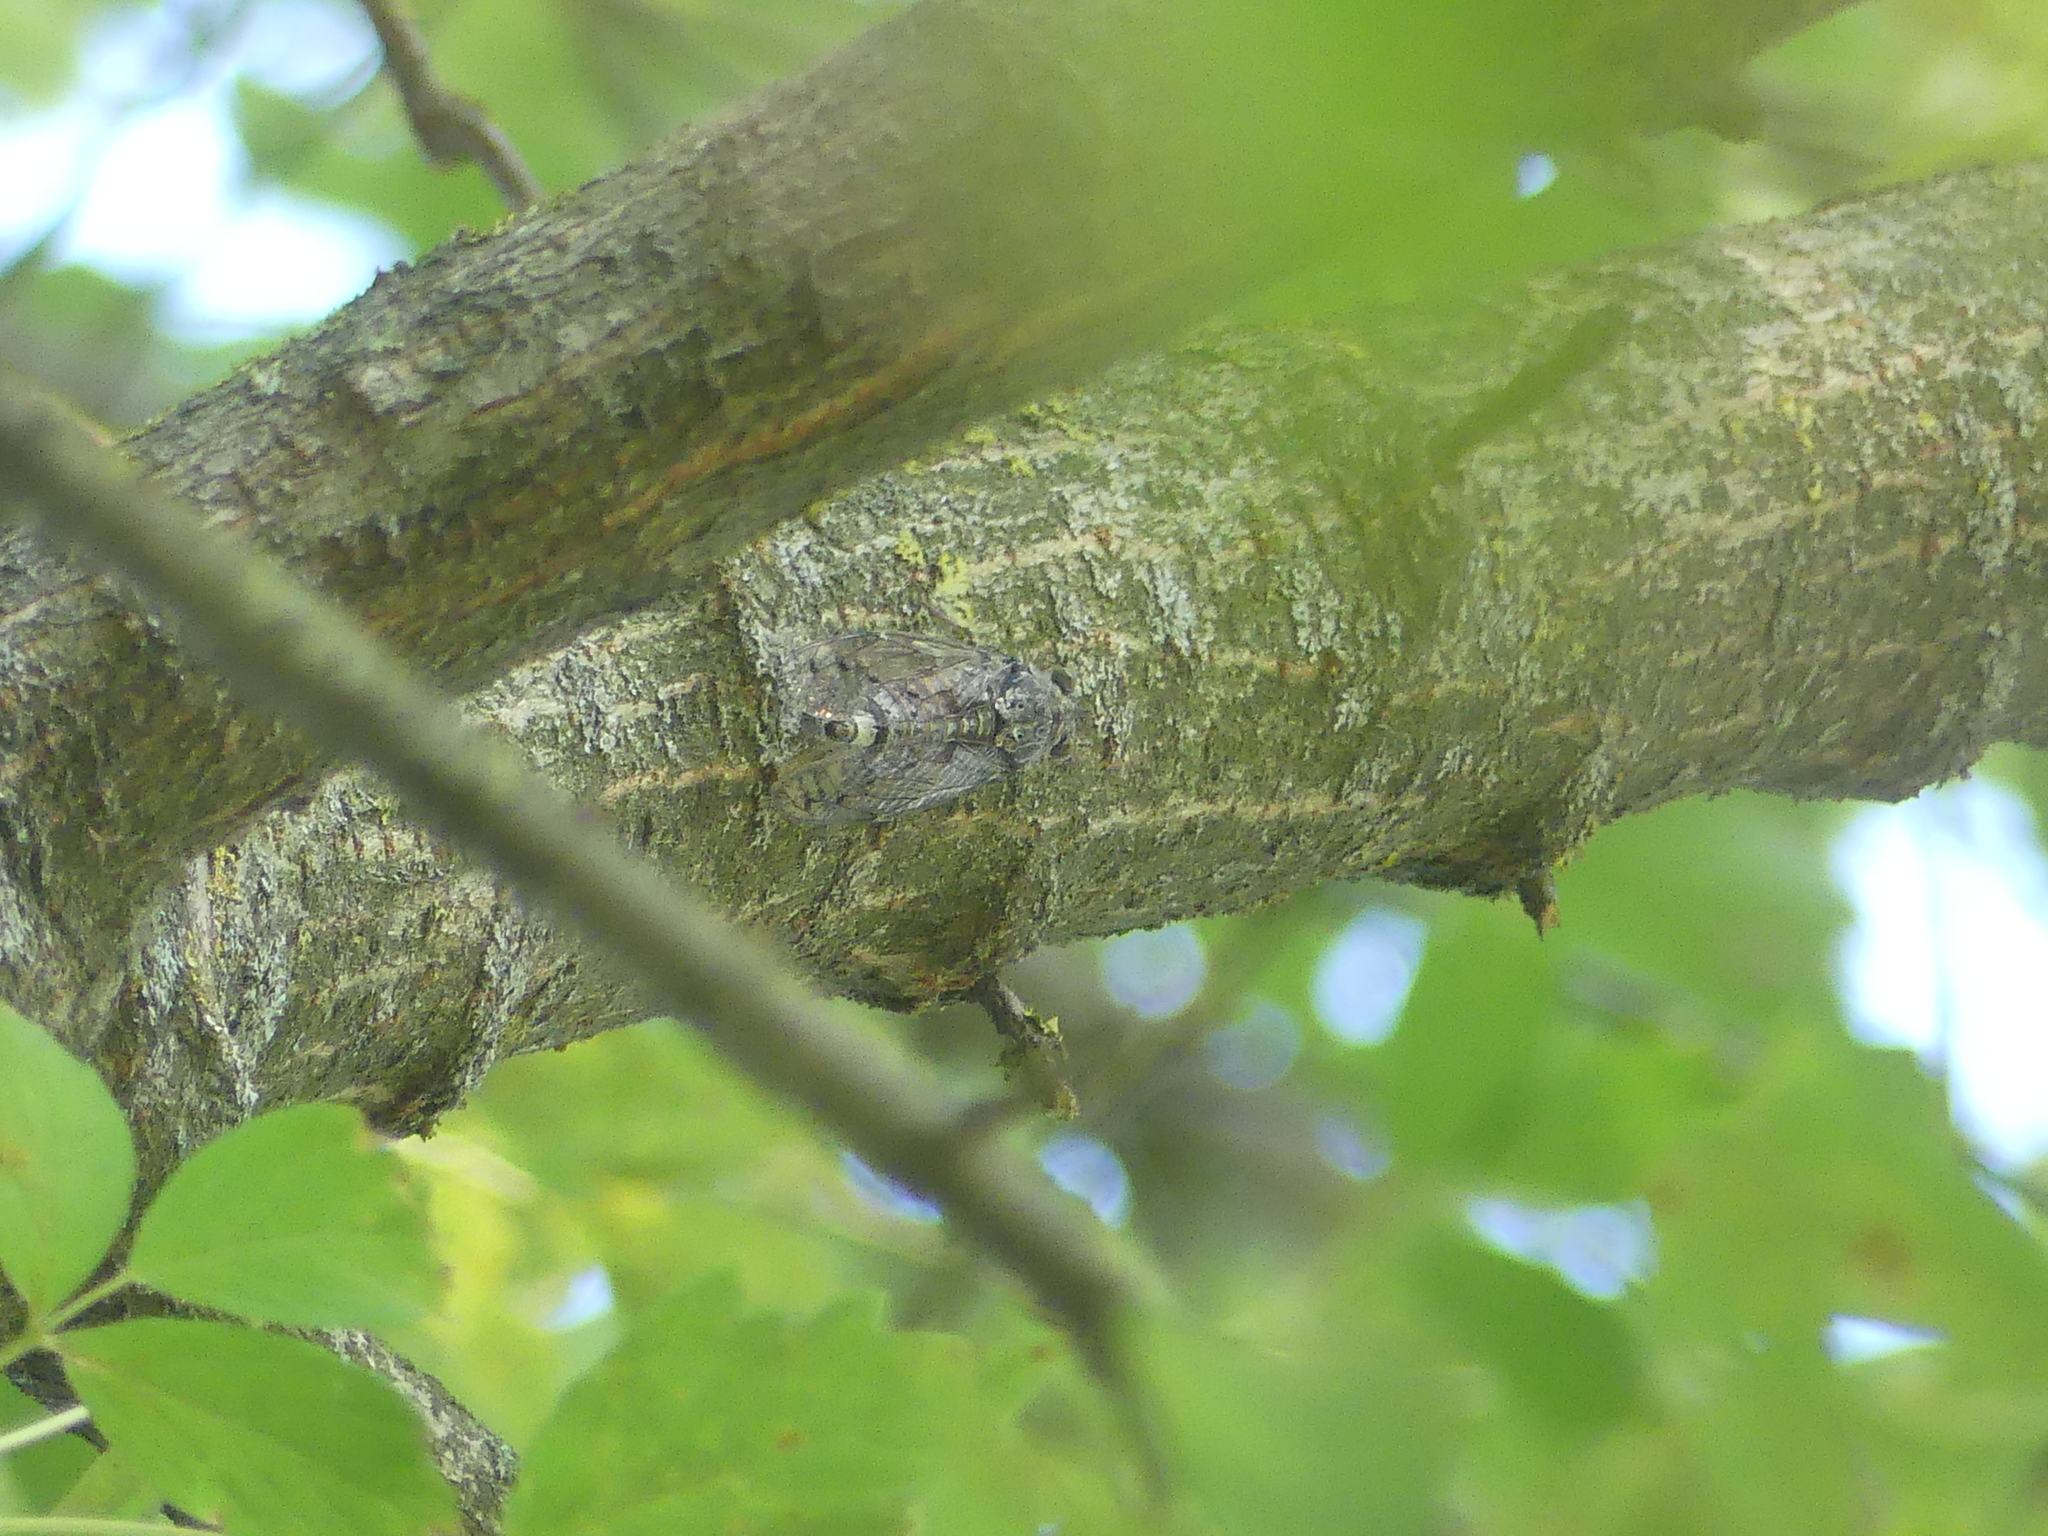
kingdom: Animalia
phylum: Arthropoda
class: Insecta
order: Hemiptera
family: Cicadidae
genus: Cicada
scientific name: Cicada orni
